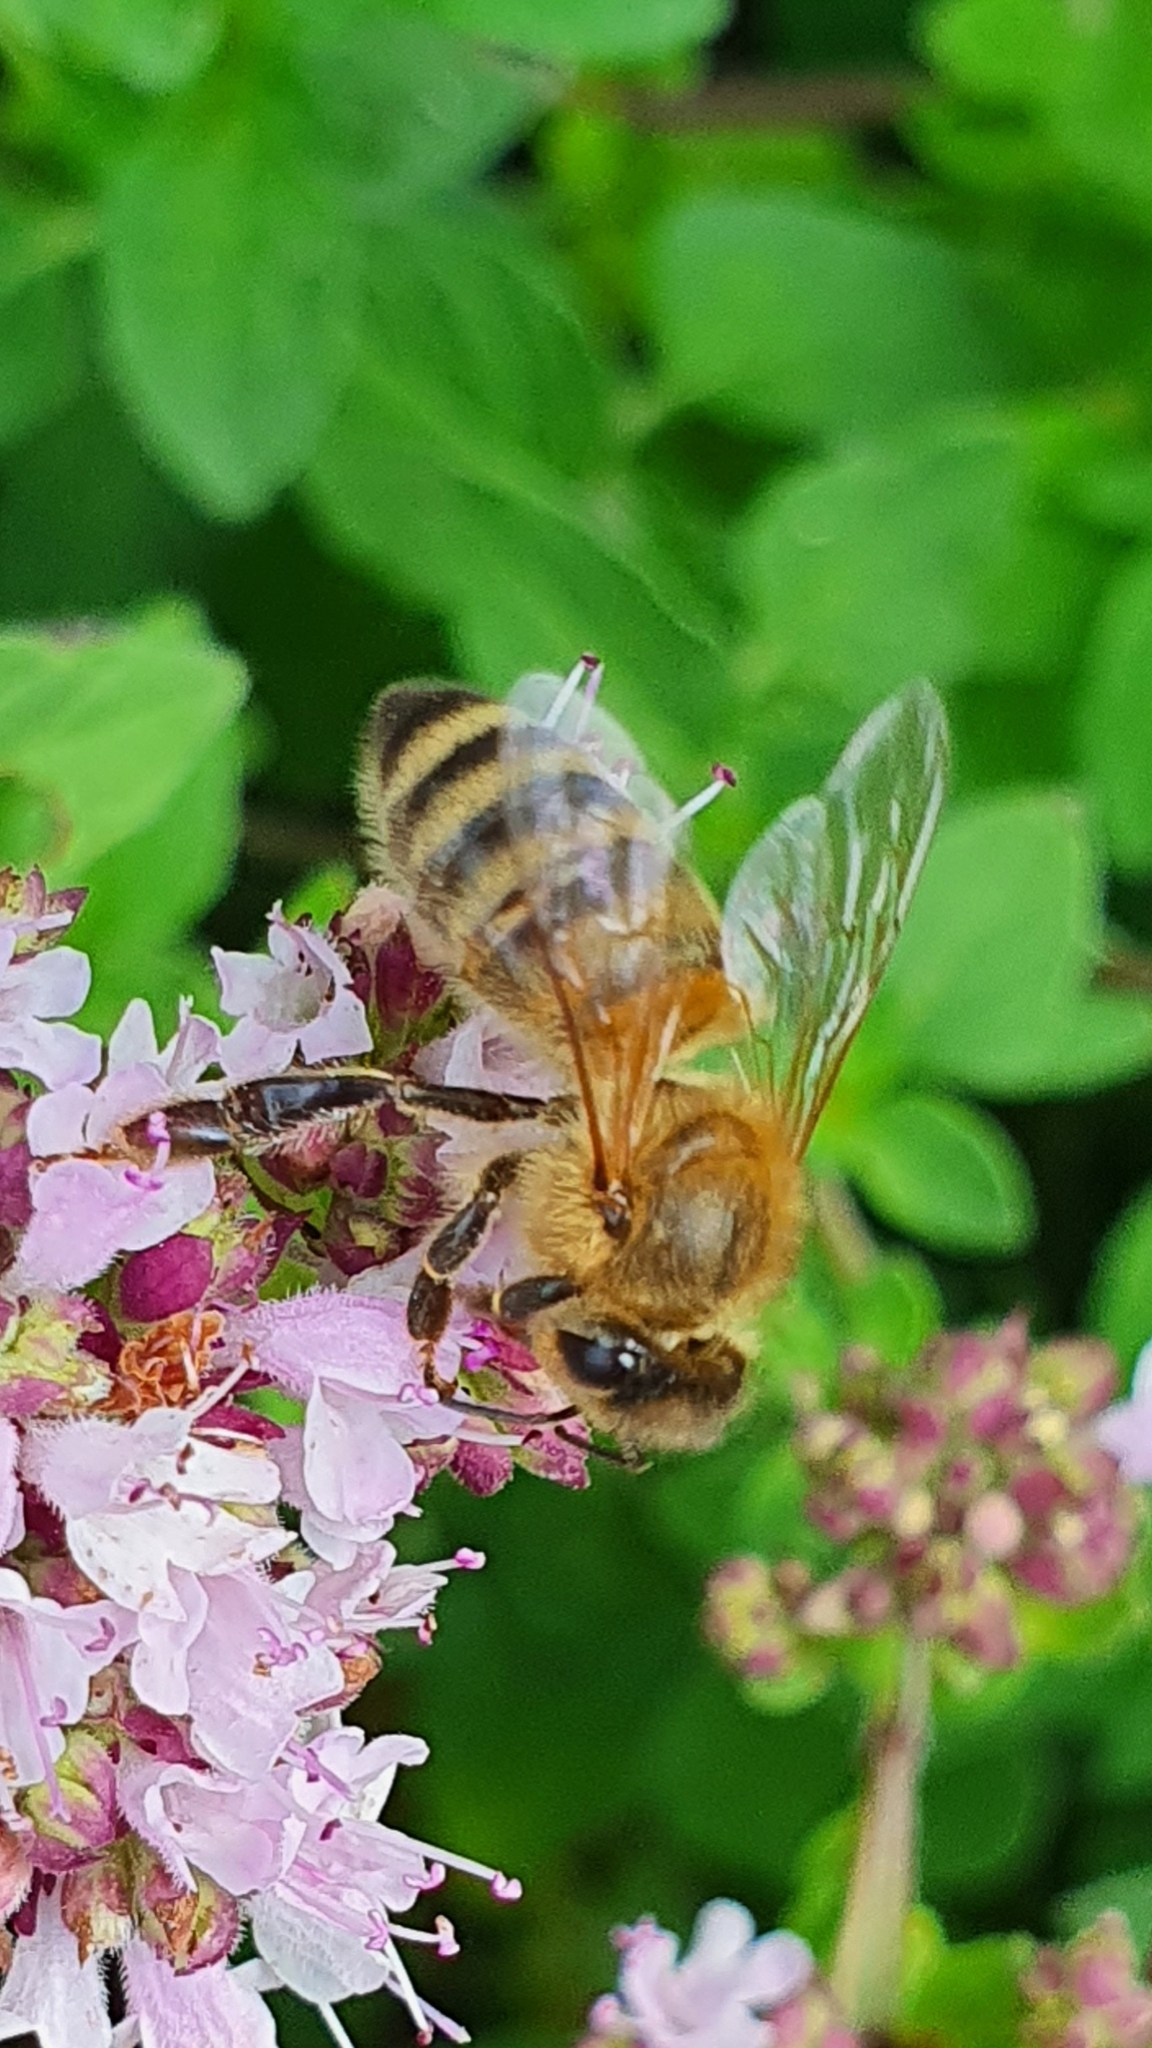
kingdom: Animalia
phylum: Arthropoda
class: Insecta
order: Hymenoptera
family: Apidae
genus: Apis
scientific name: Apis mellifera
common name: Honey bee
